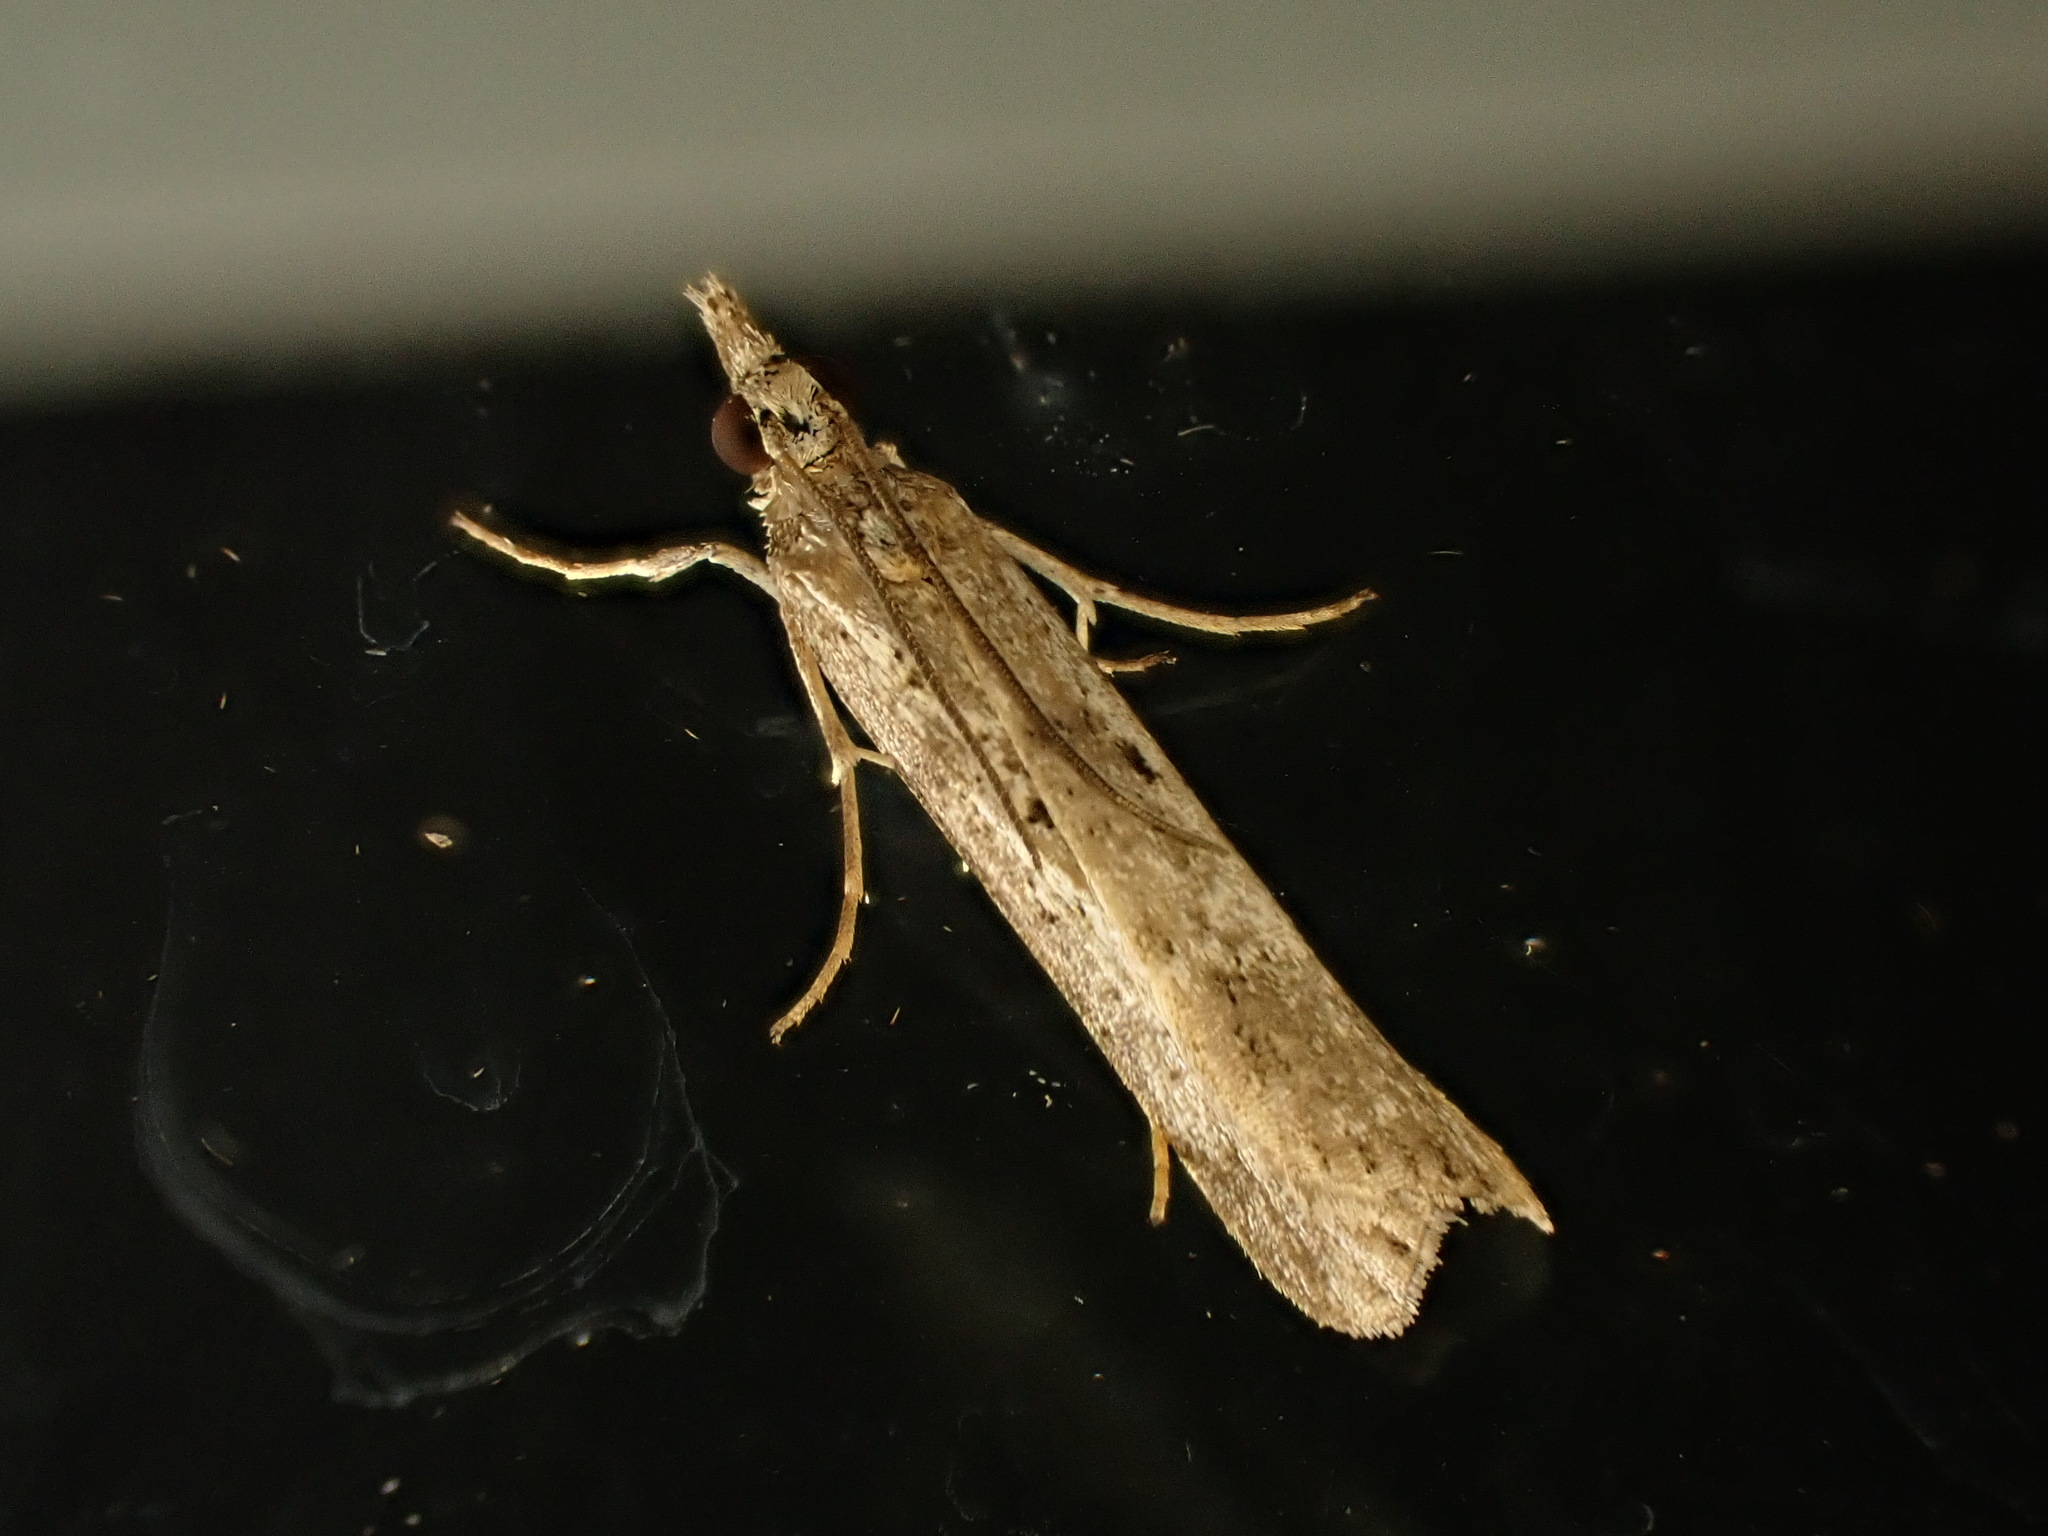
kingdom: Animalia
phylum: Arthropoda
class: Insecta
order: Lepidoptera
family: Crambidae
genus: Eudonia
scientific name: Eudonia leptalea
